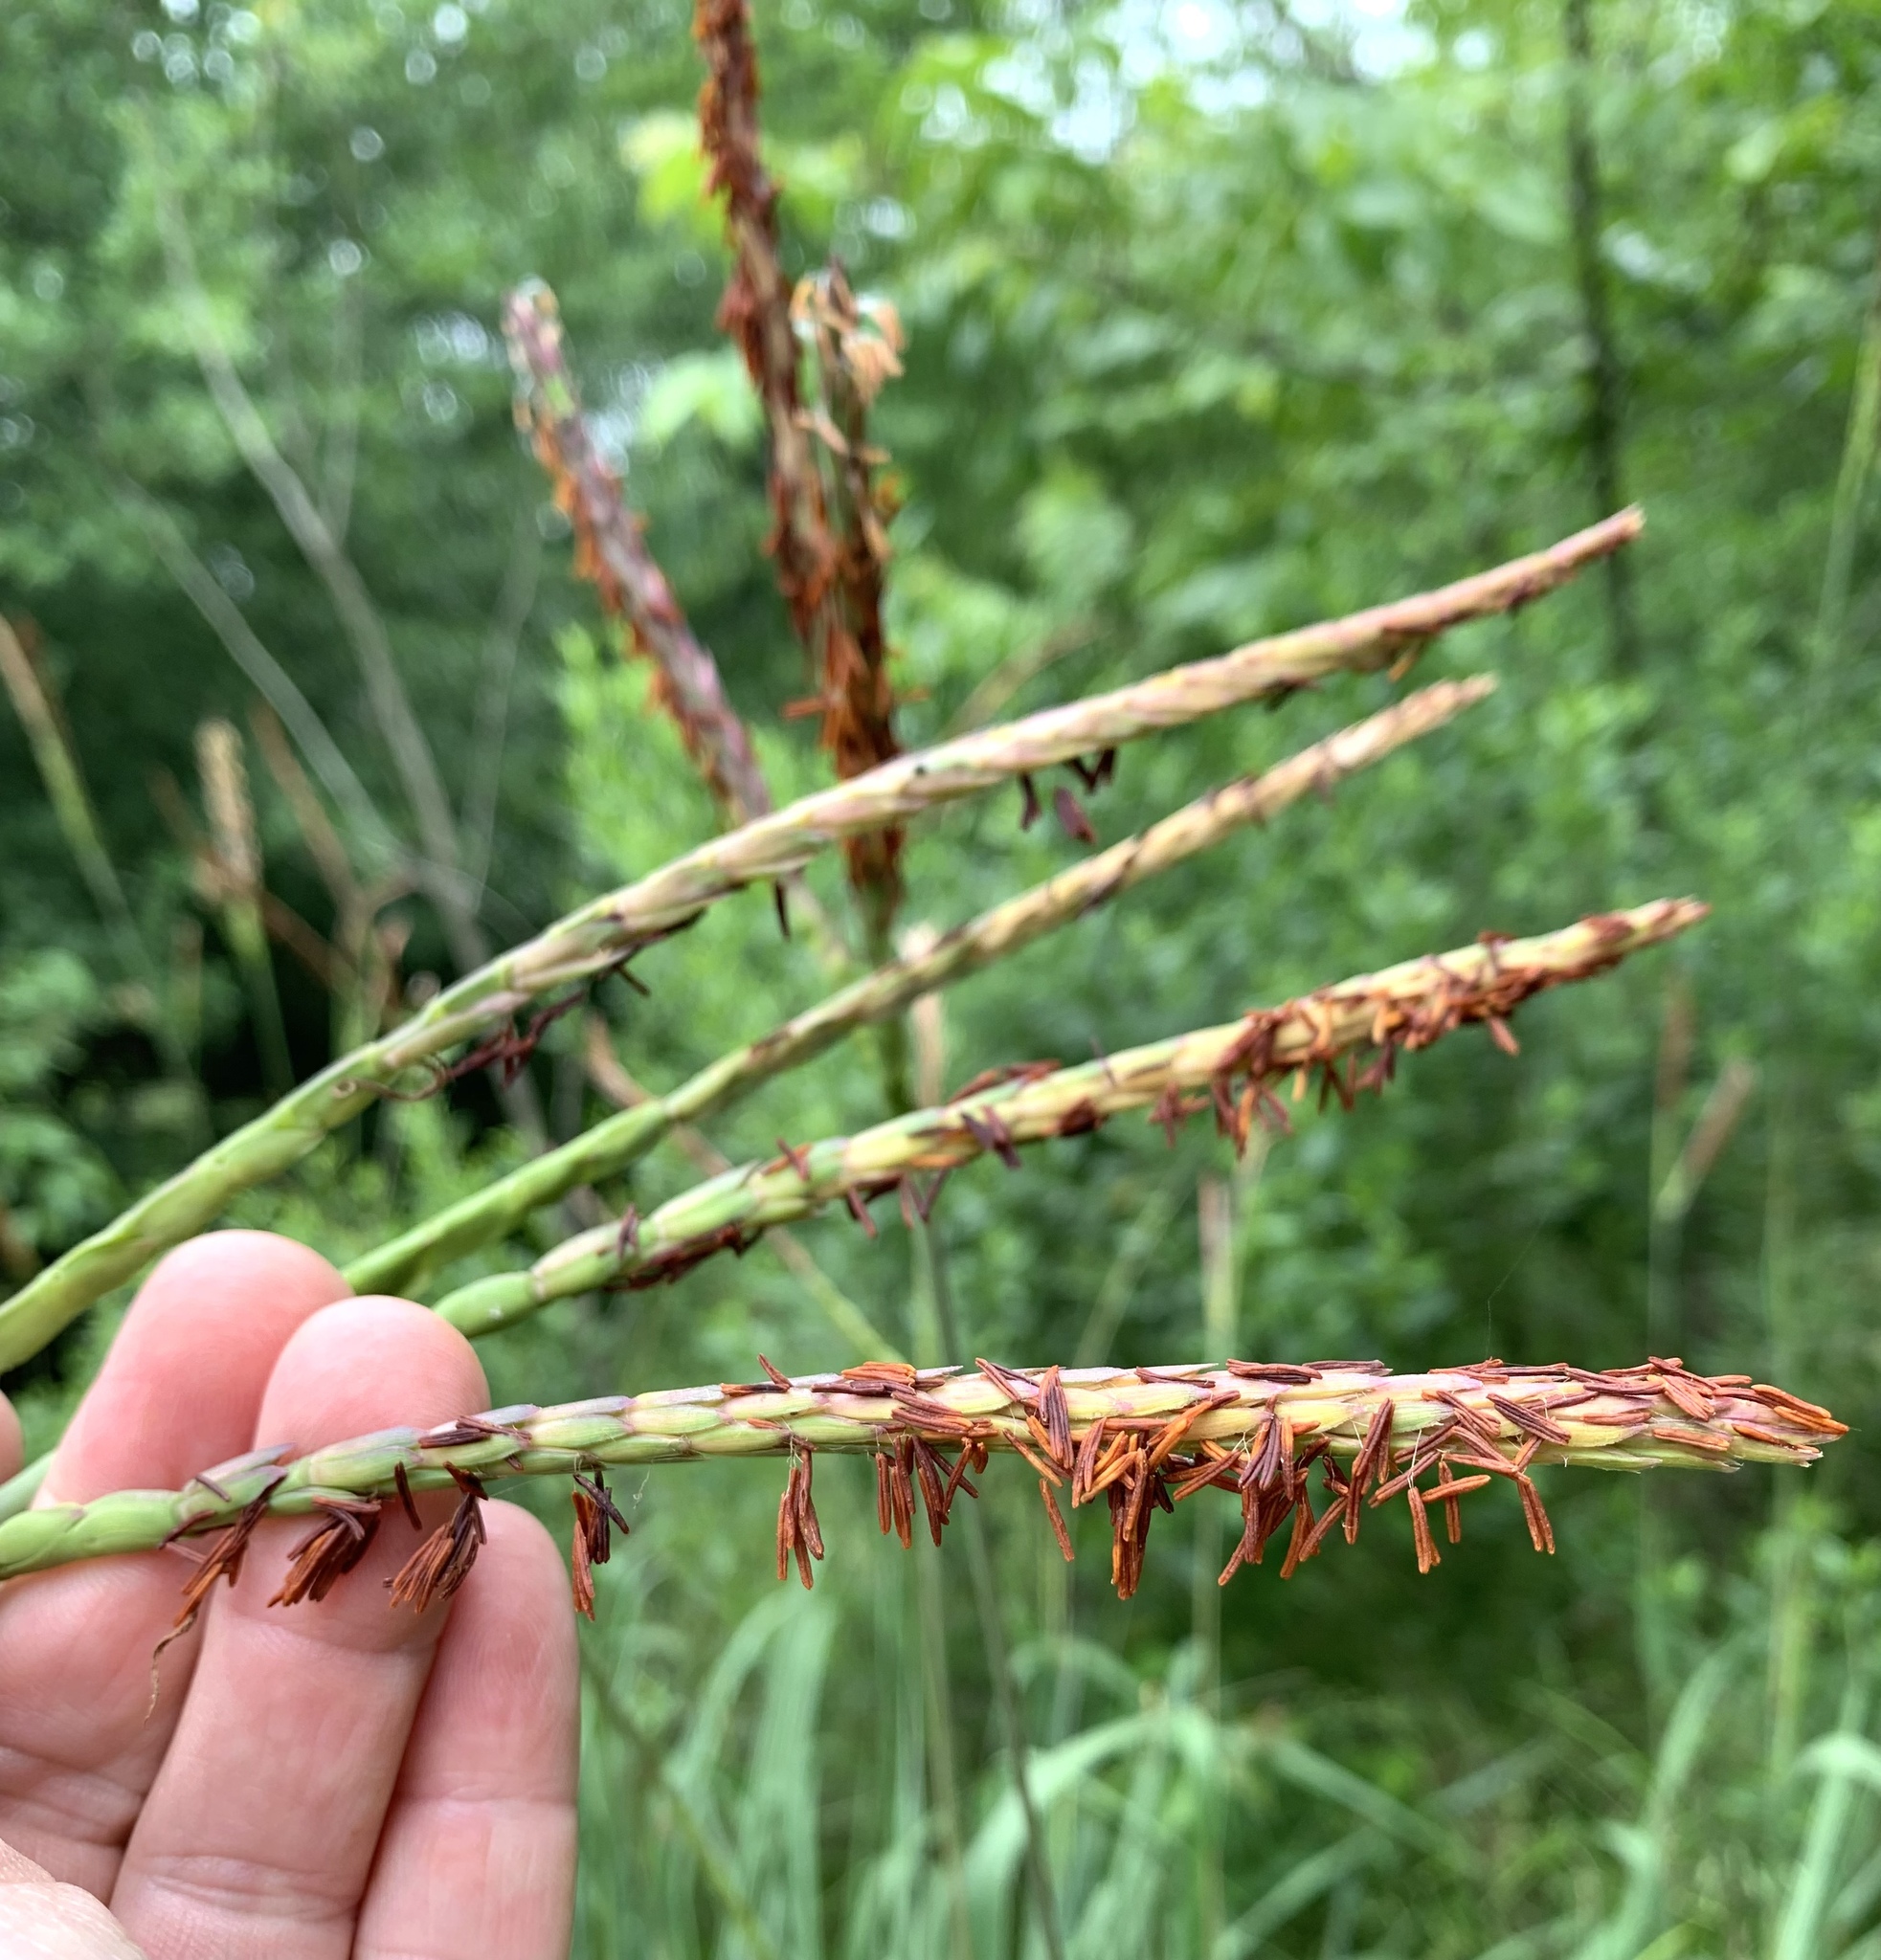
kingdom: Plantae
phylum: Tracheophyta
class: Liliopsida
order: Poales
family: Poaceae
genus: Tripsacum
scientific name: Tripsacum dactyloides
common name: Buffalo-grass
